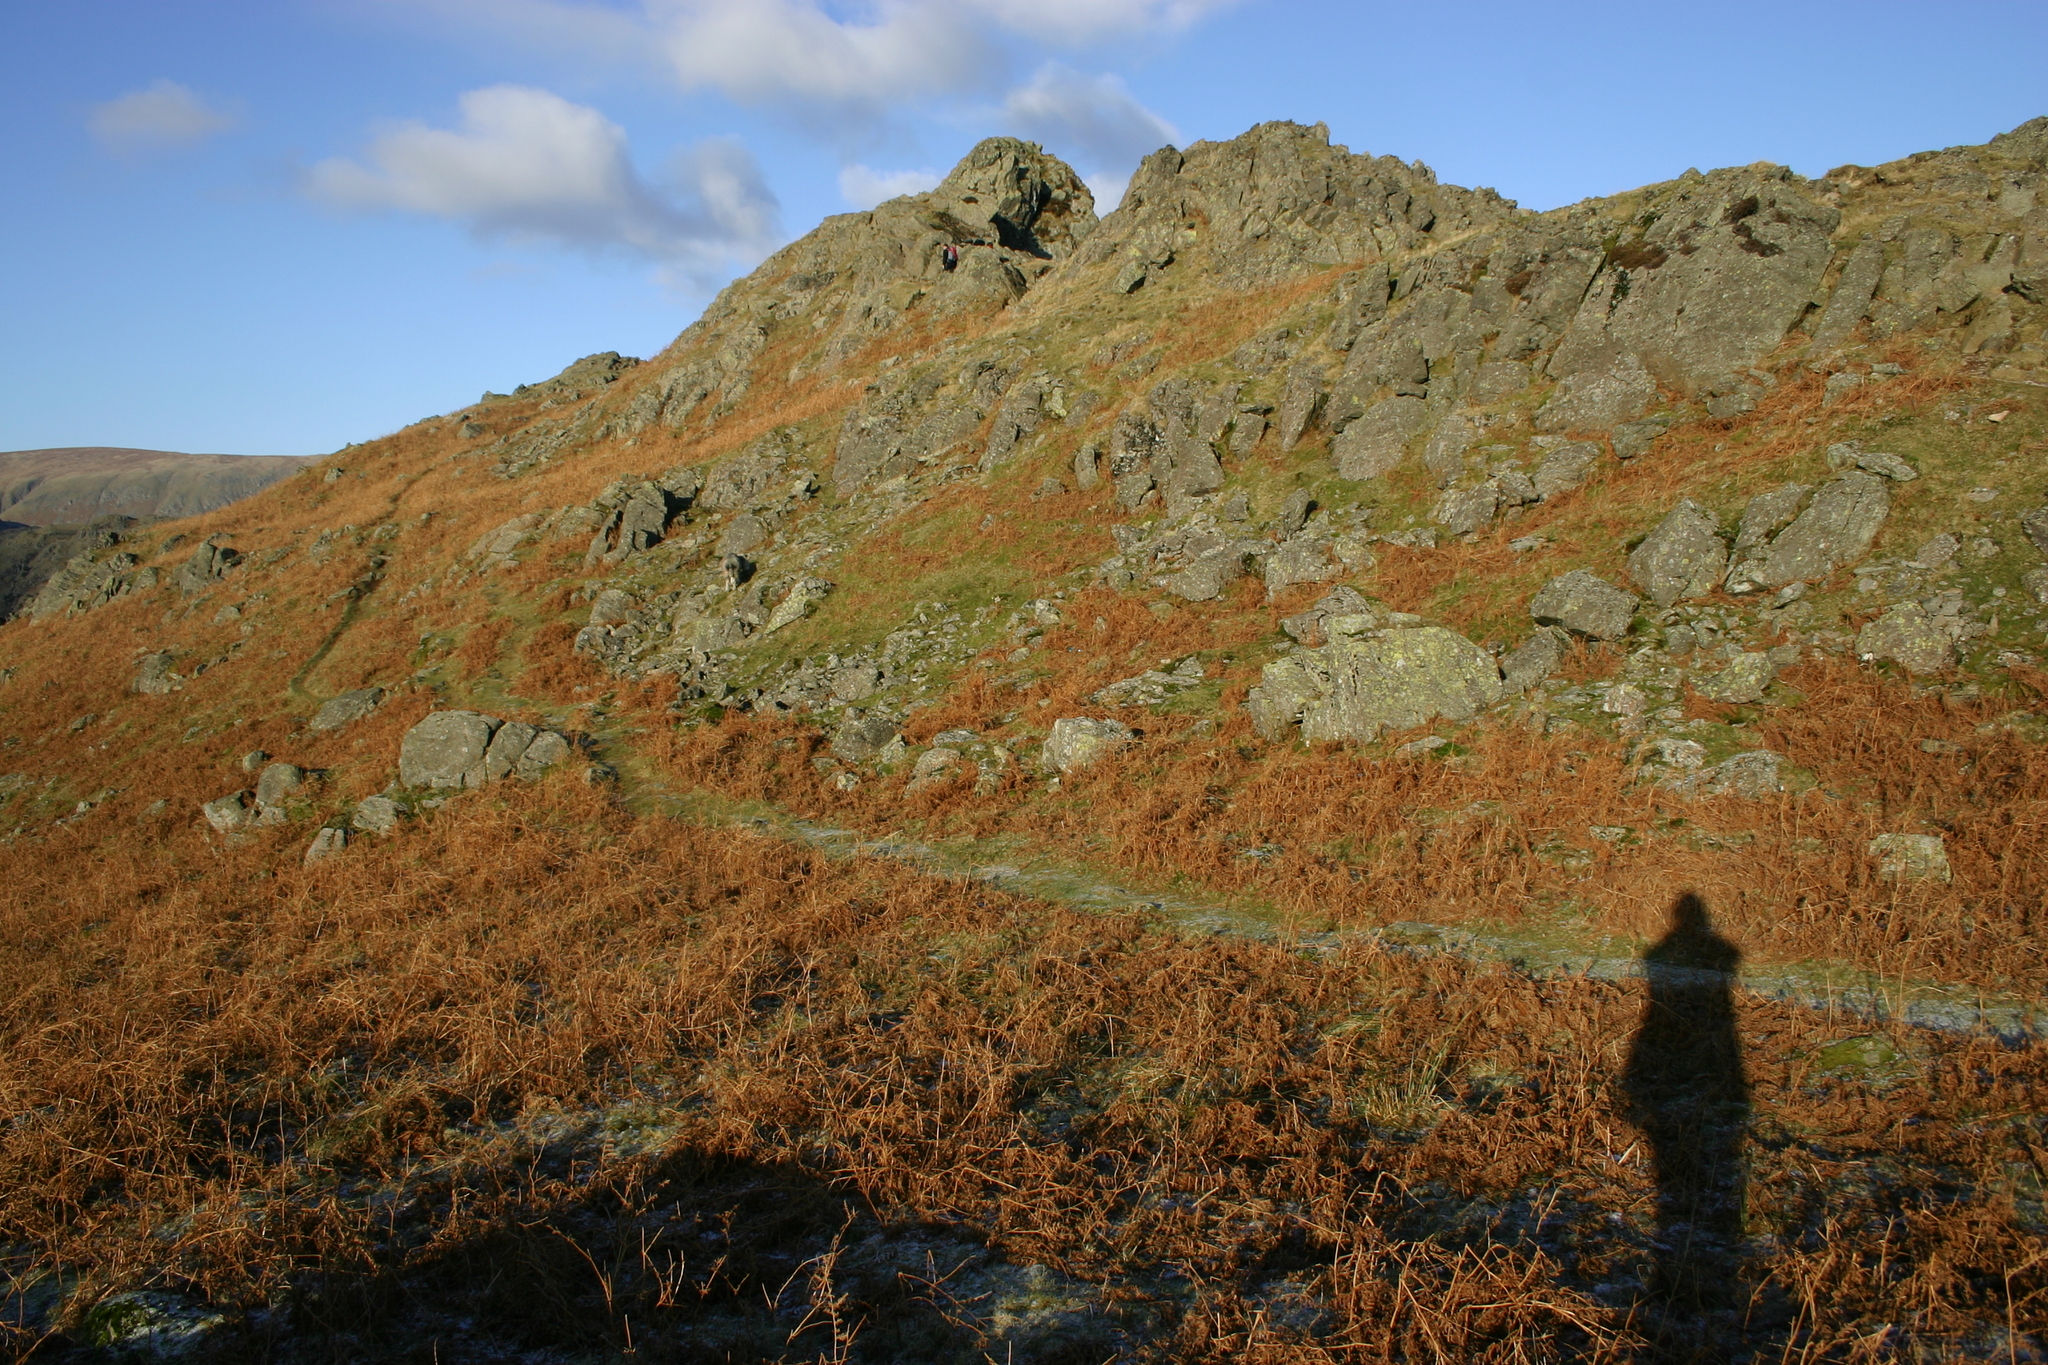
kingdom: Plantae
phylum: Tracheophyta
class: Polypodiopsida
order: Polypodiales
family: Dennstaedtiaceae
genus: Pteridium
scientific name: Pteridium aquilinum
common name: Bracken
